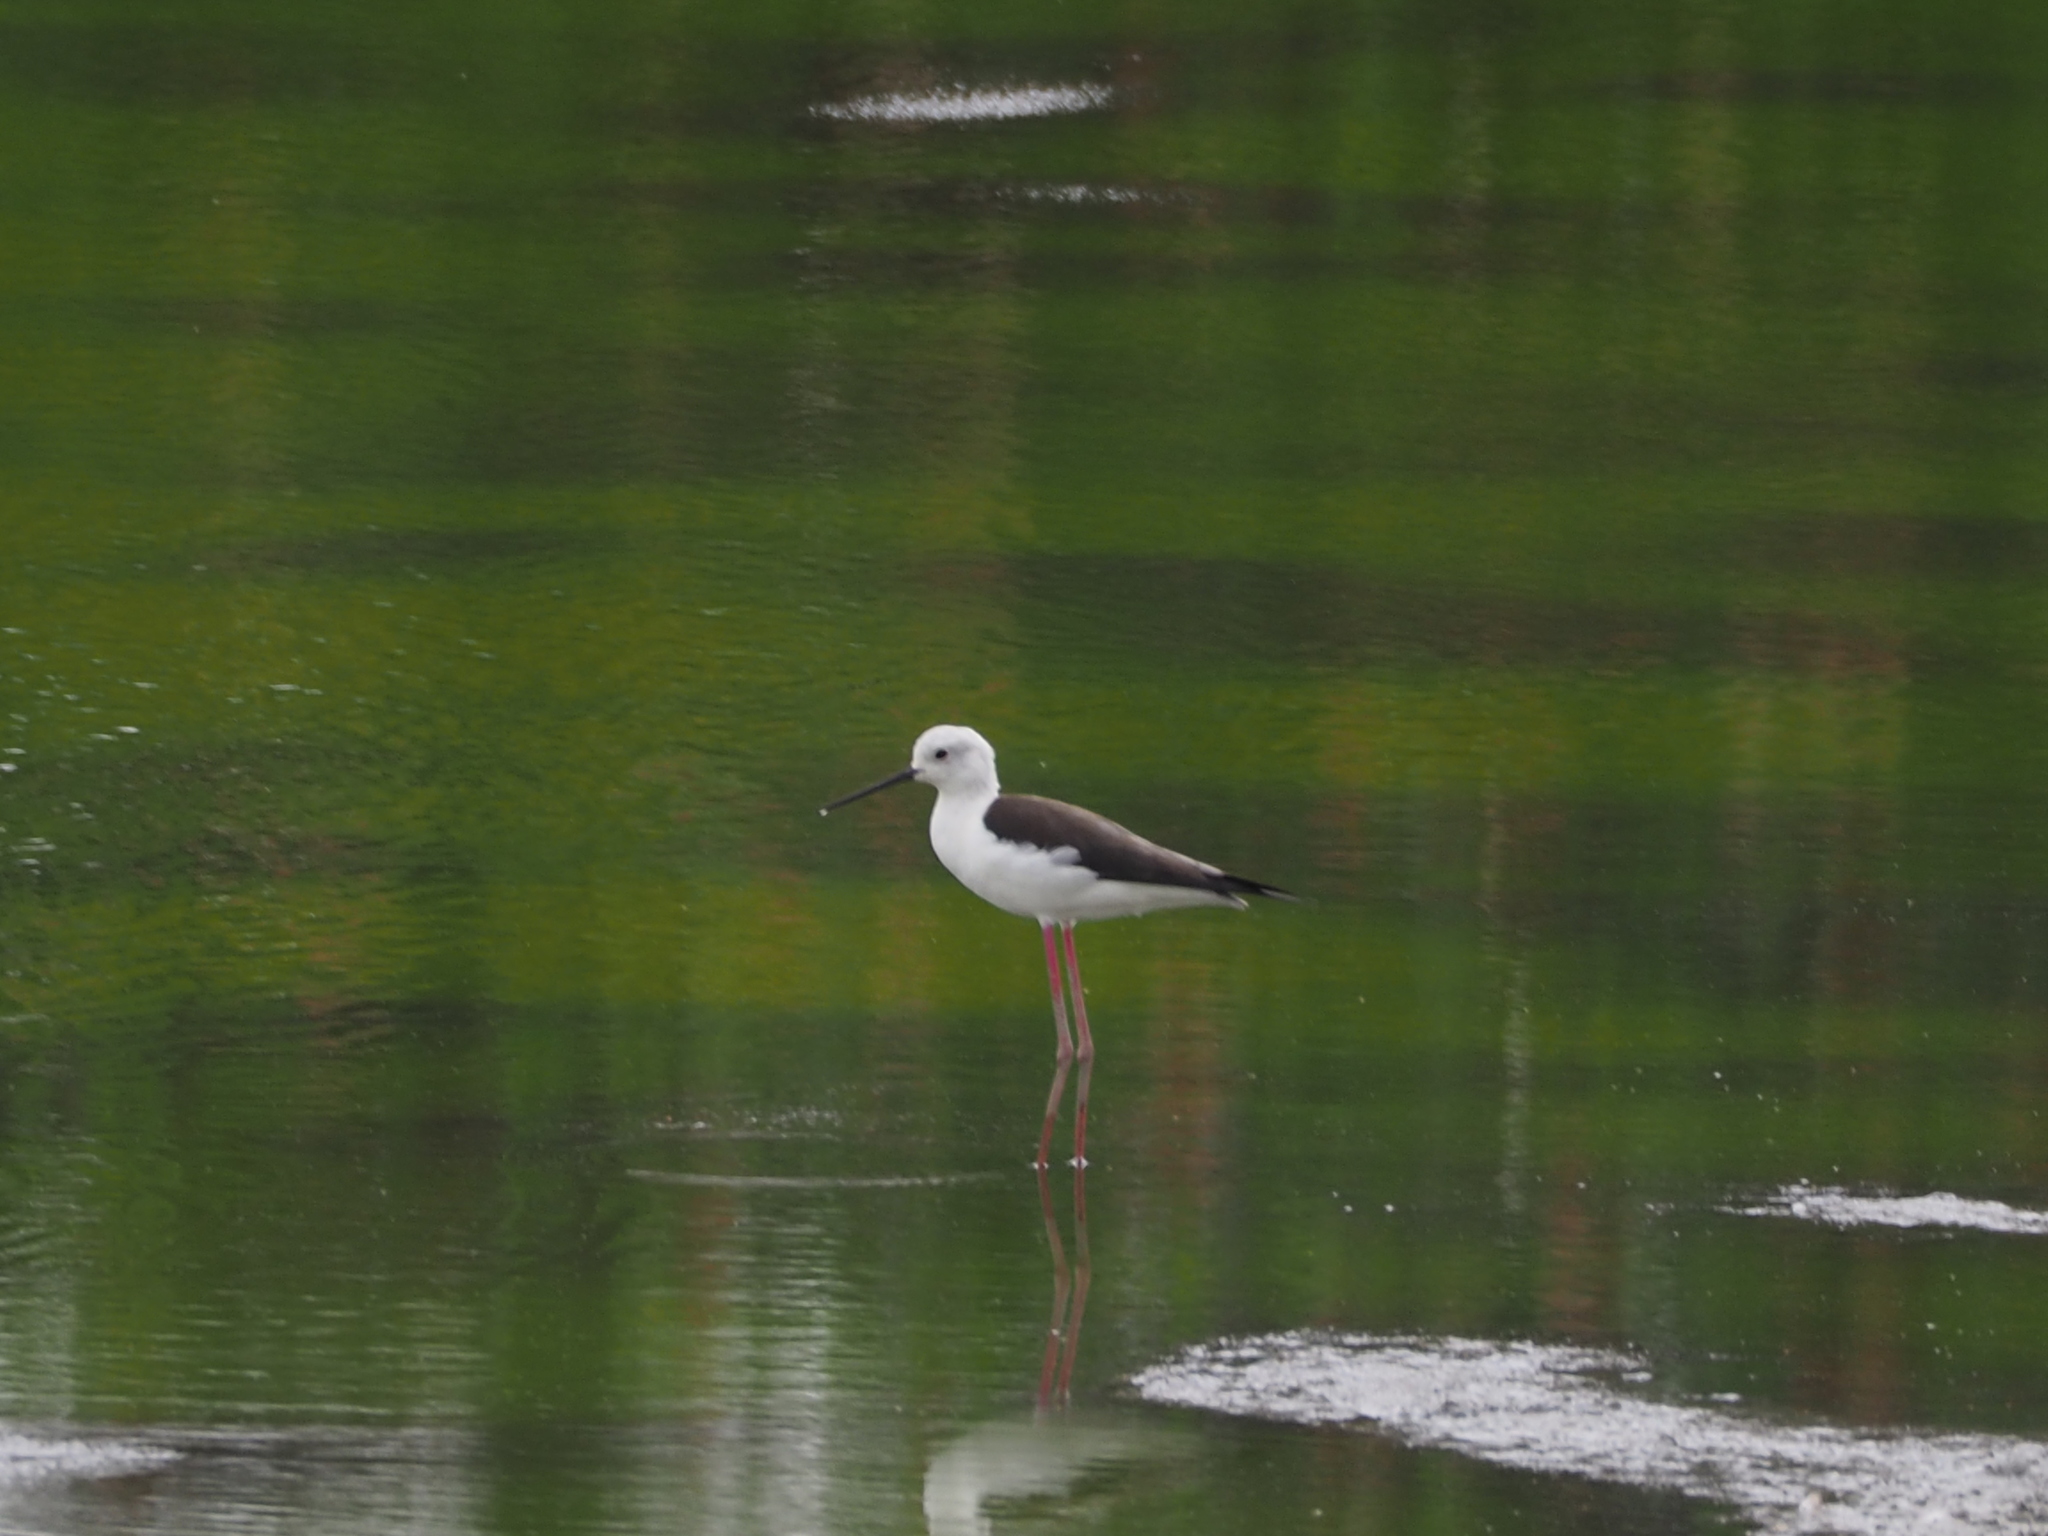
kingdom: Animalia
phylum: Chordata
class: Aves
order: Charadriiformes
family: Recurvirostridae
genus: Himantopus
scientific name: Himantopus himantopus
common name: Black-winged stilt
